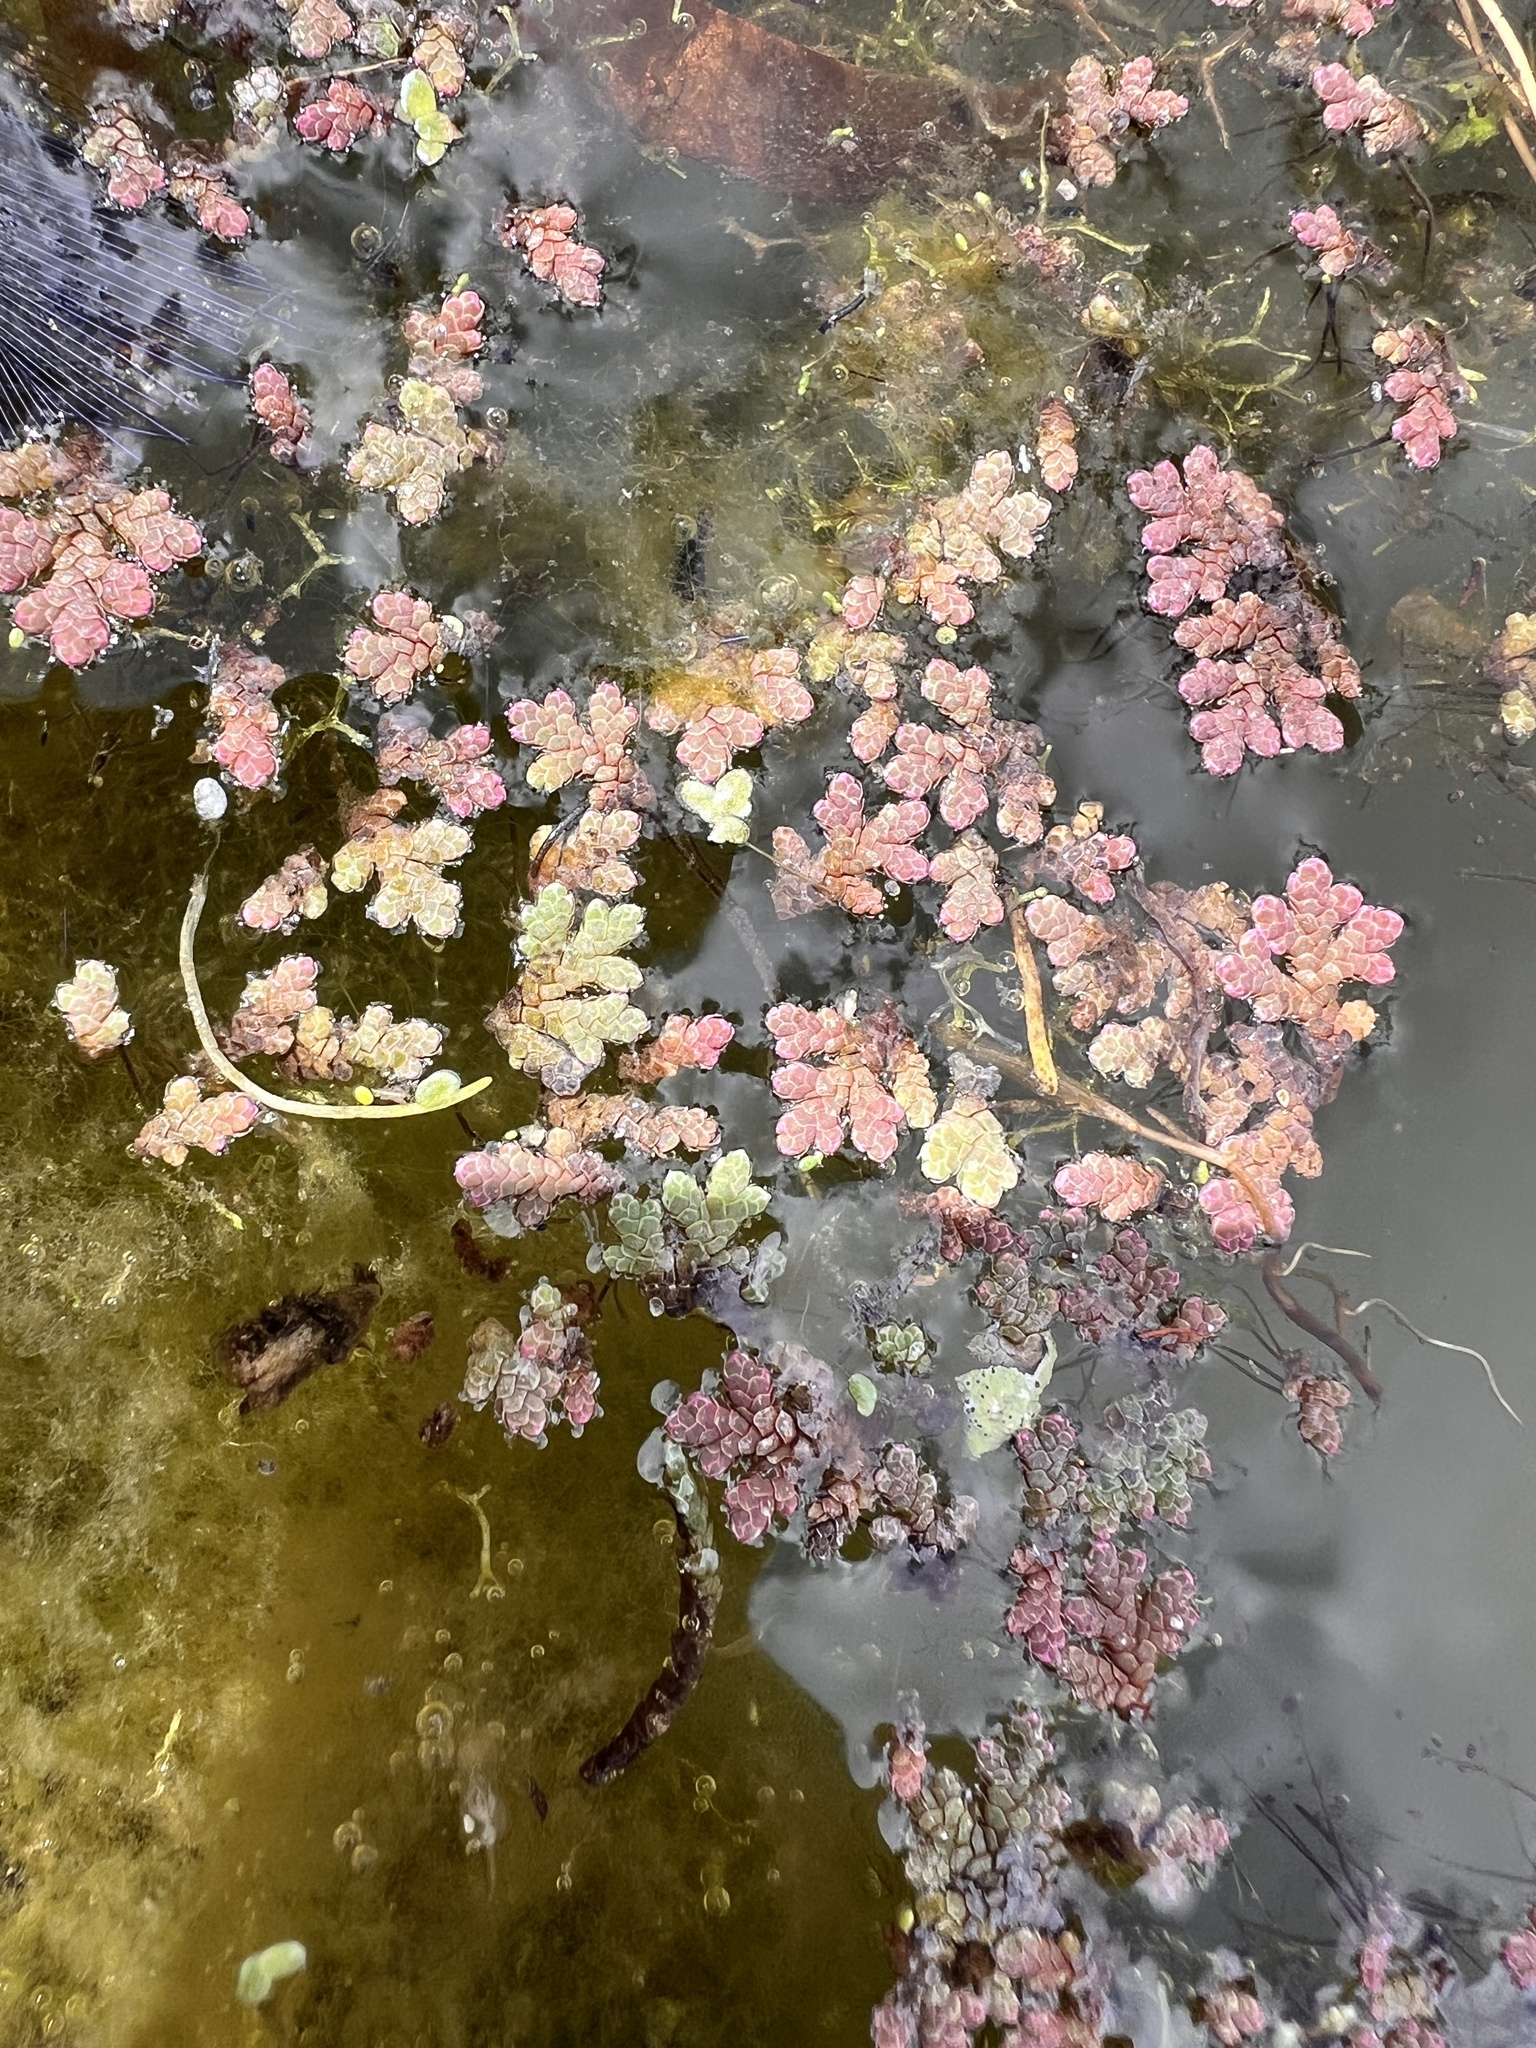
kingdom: Plantae
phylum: Tracheophyta
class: Polypodiopsida
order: Salviniales
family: Salviniaceae
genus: Azolla
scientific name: Azolla rubra
